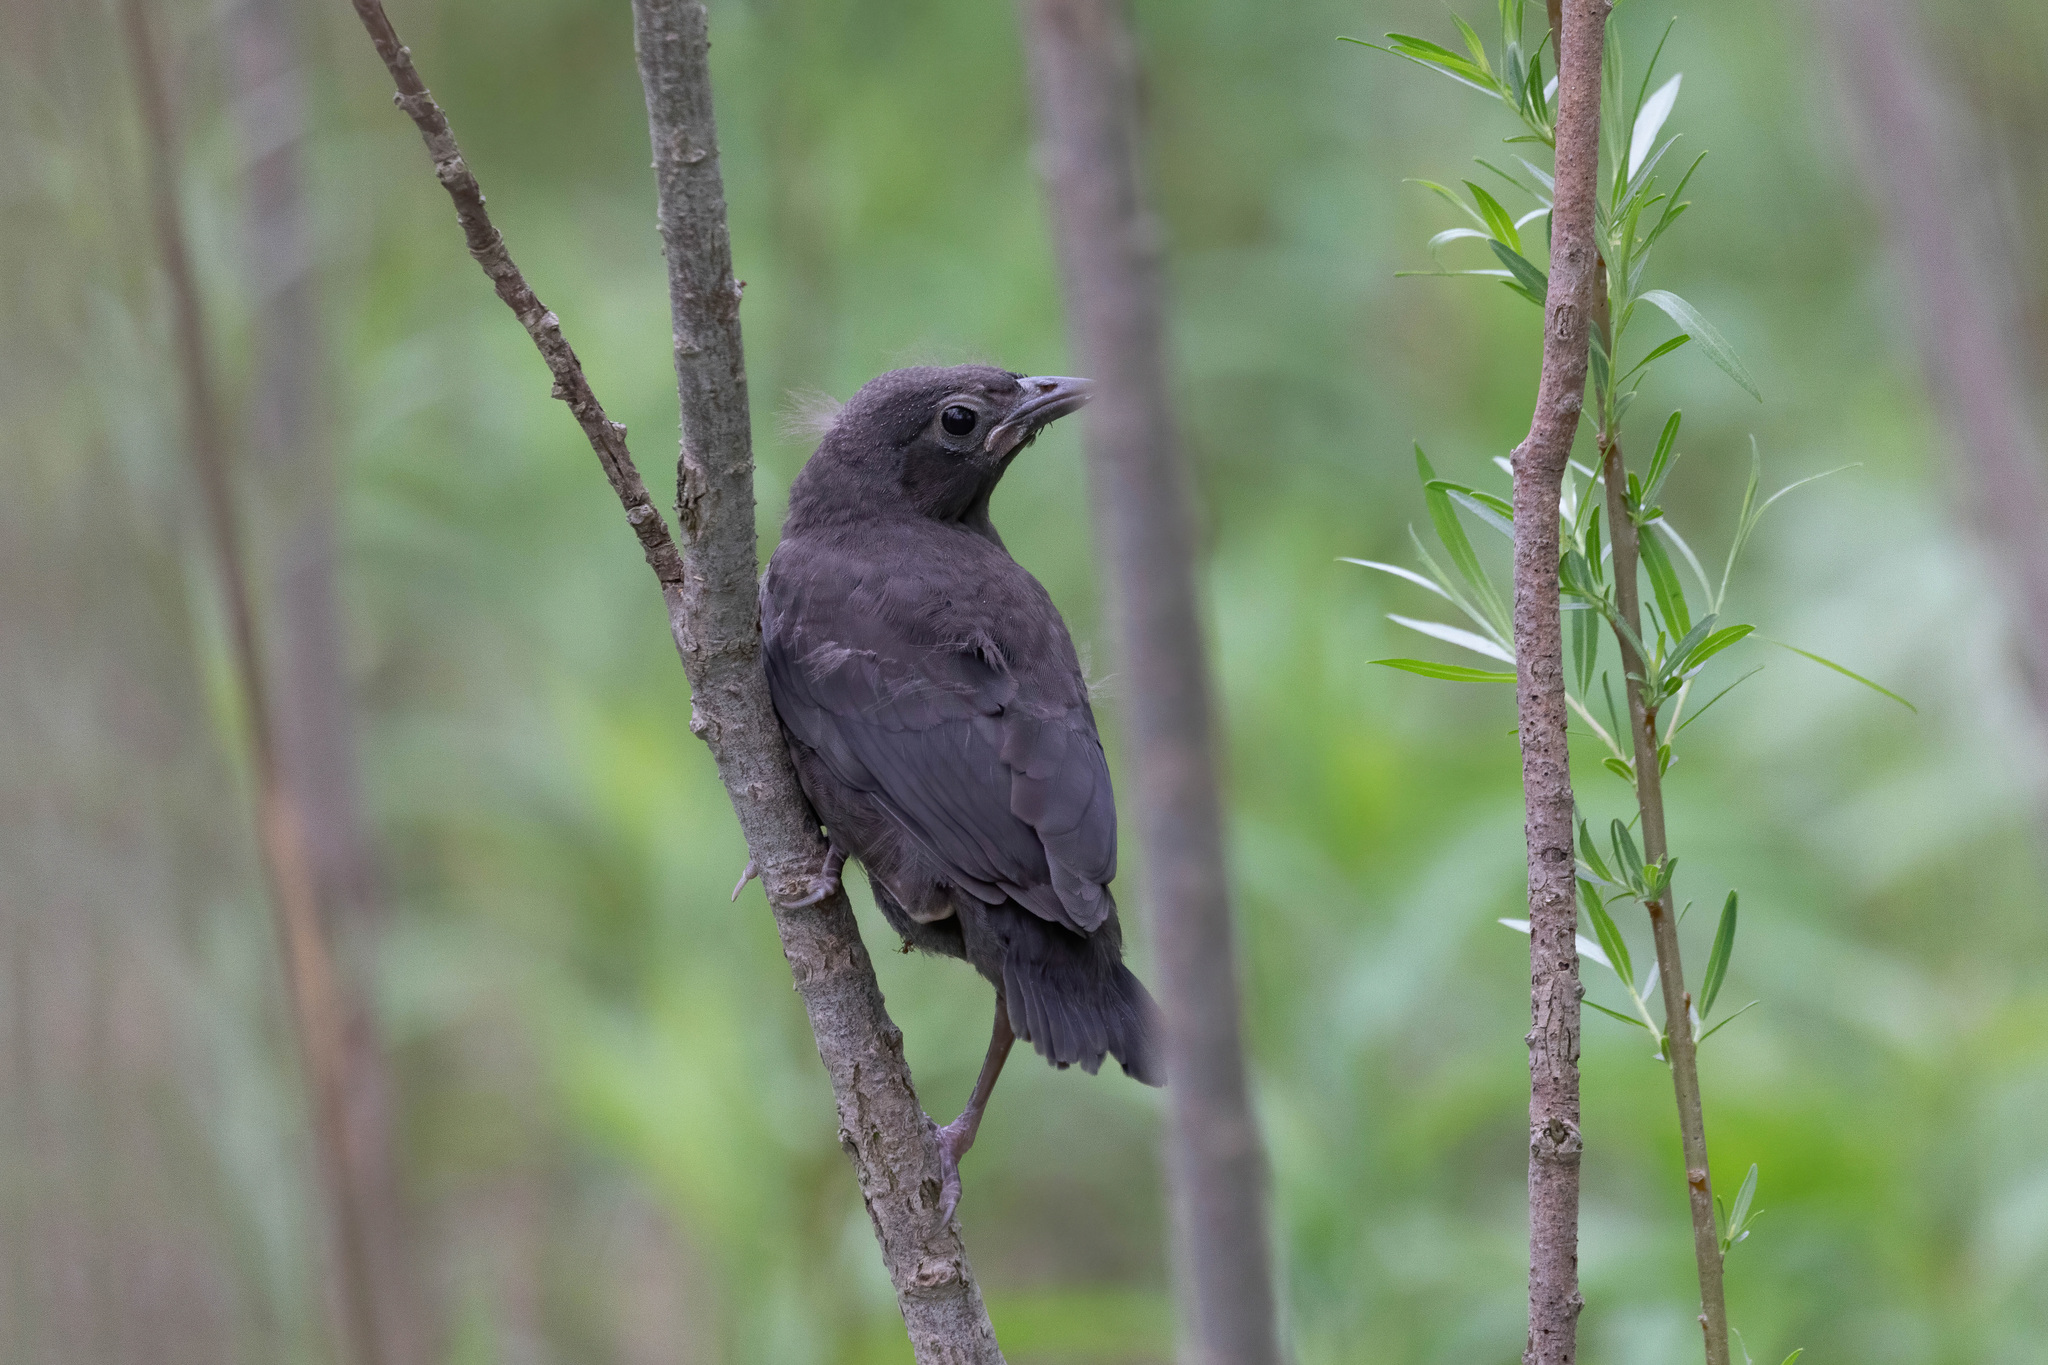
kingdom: Animalia
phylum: Chordata
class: Aves
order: Passeriformes
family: Icteridae
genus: Quiscalus
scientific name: Quiscalus quiscula
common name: Common grackle
